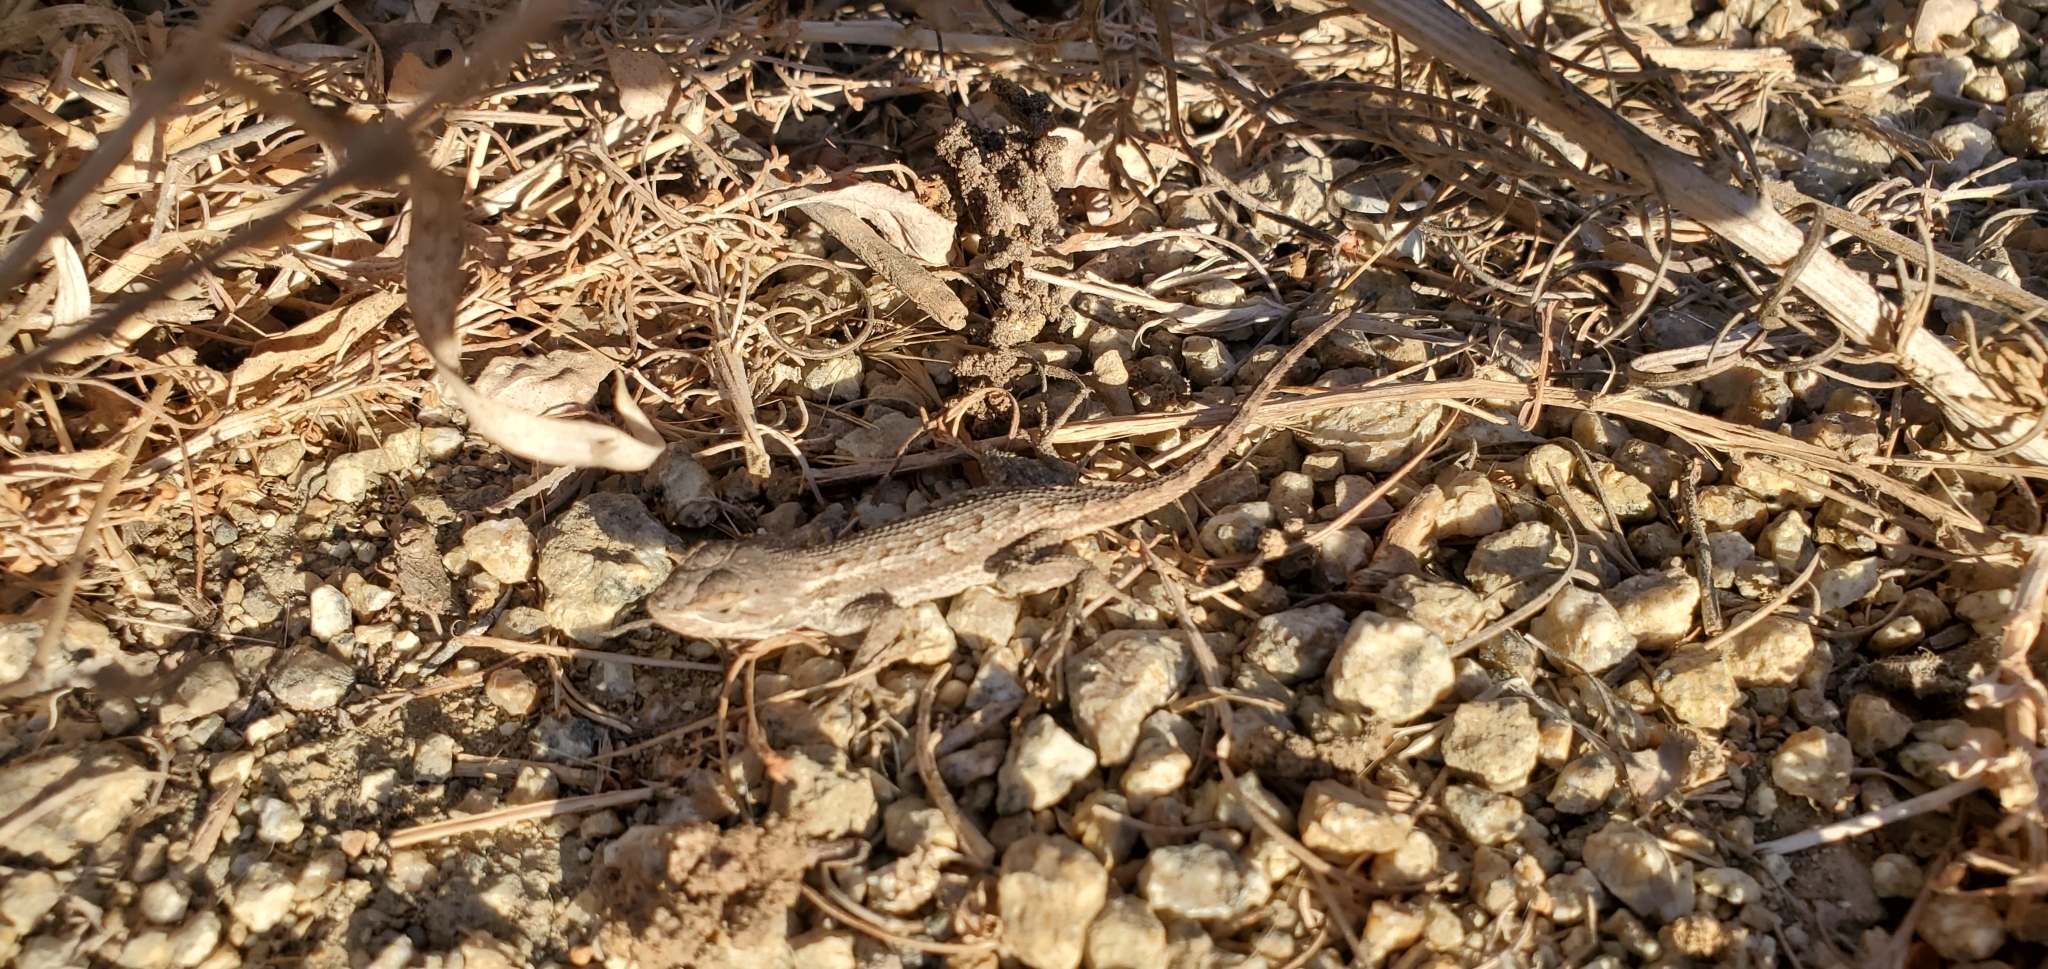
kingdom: Animalia
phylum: Chordata
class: Squamata
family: Phrynosomatidae
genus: Sceloporus
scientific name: Sceloporus occidentalis
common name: Western fence lizard
